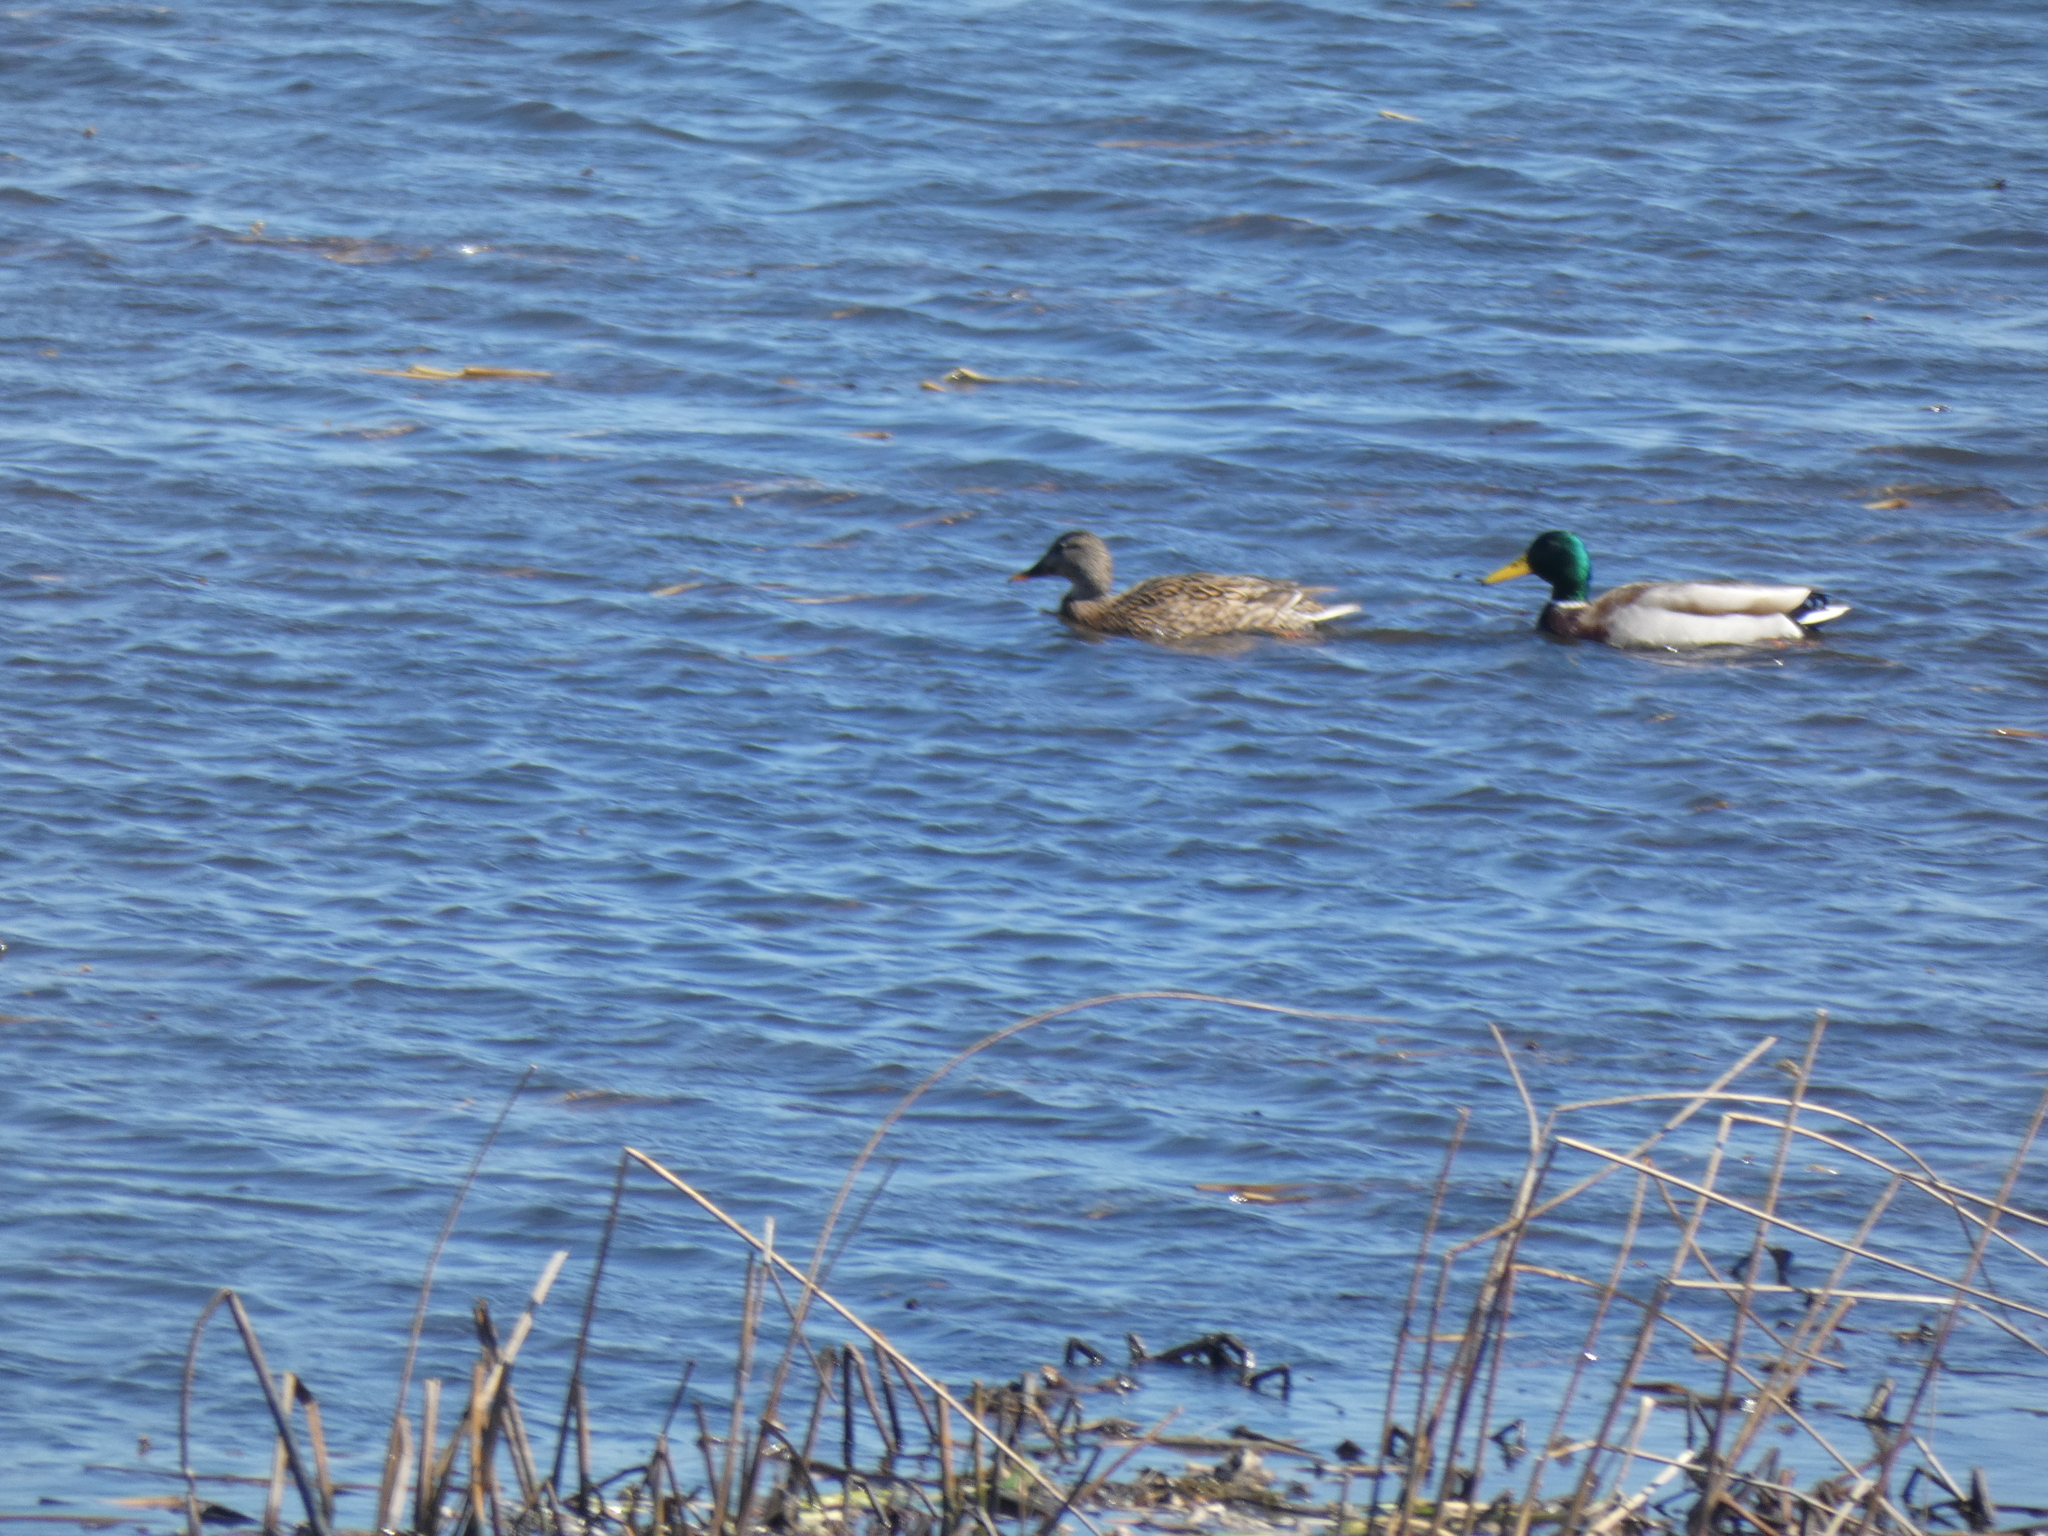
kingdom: Animalia
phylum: Chordata
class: Aves
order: Anseriformes
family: Anatidae
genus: Anas
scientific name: Anas platyrhynchos
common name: Mallard
